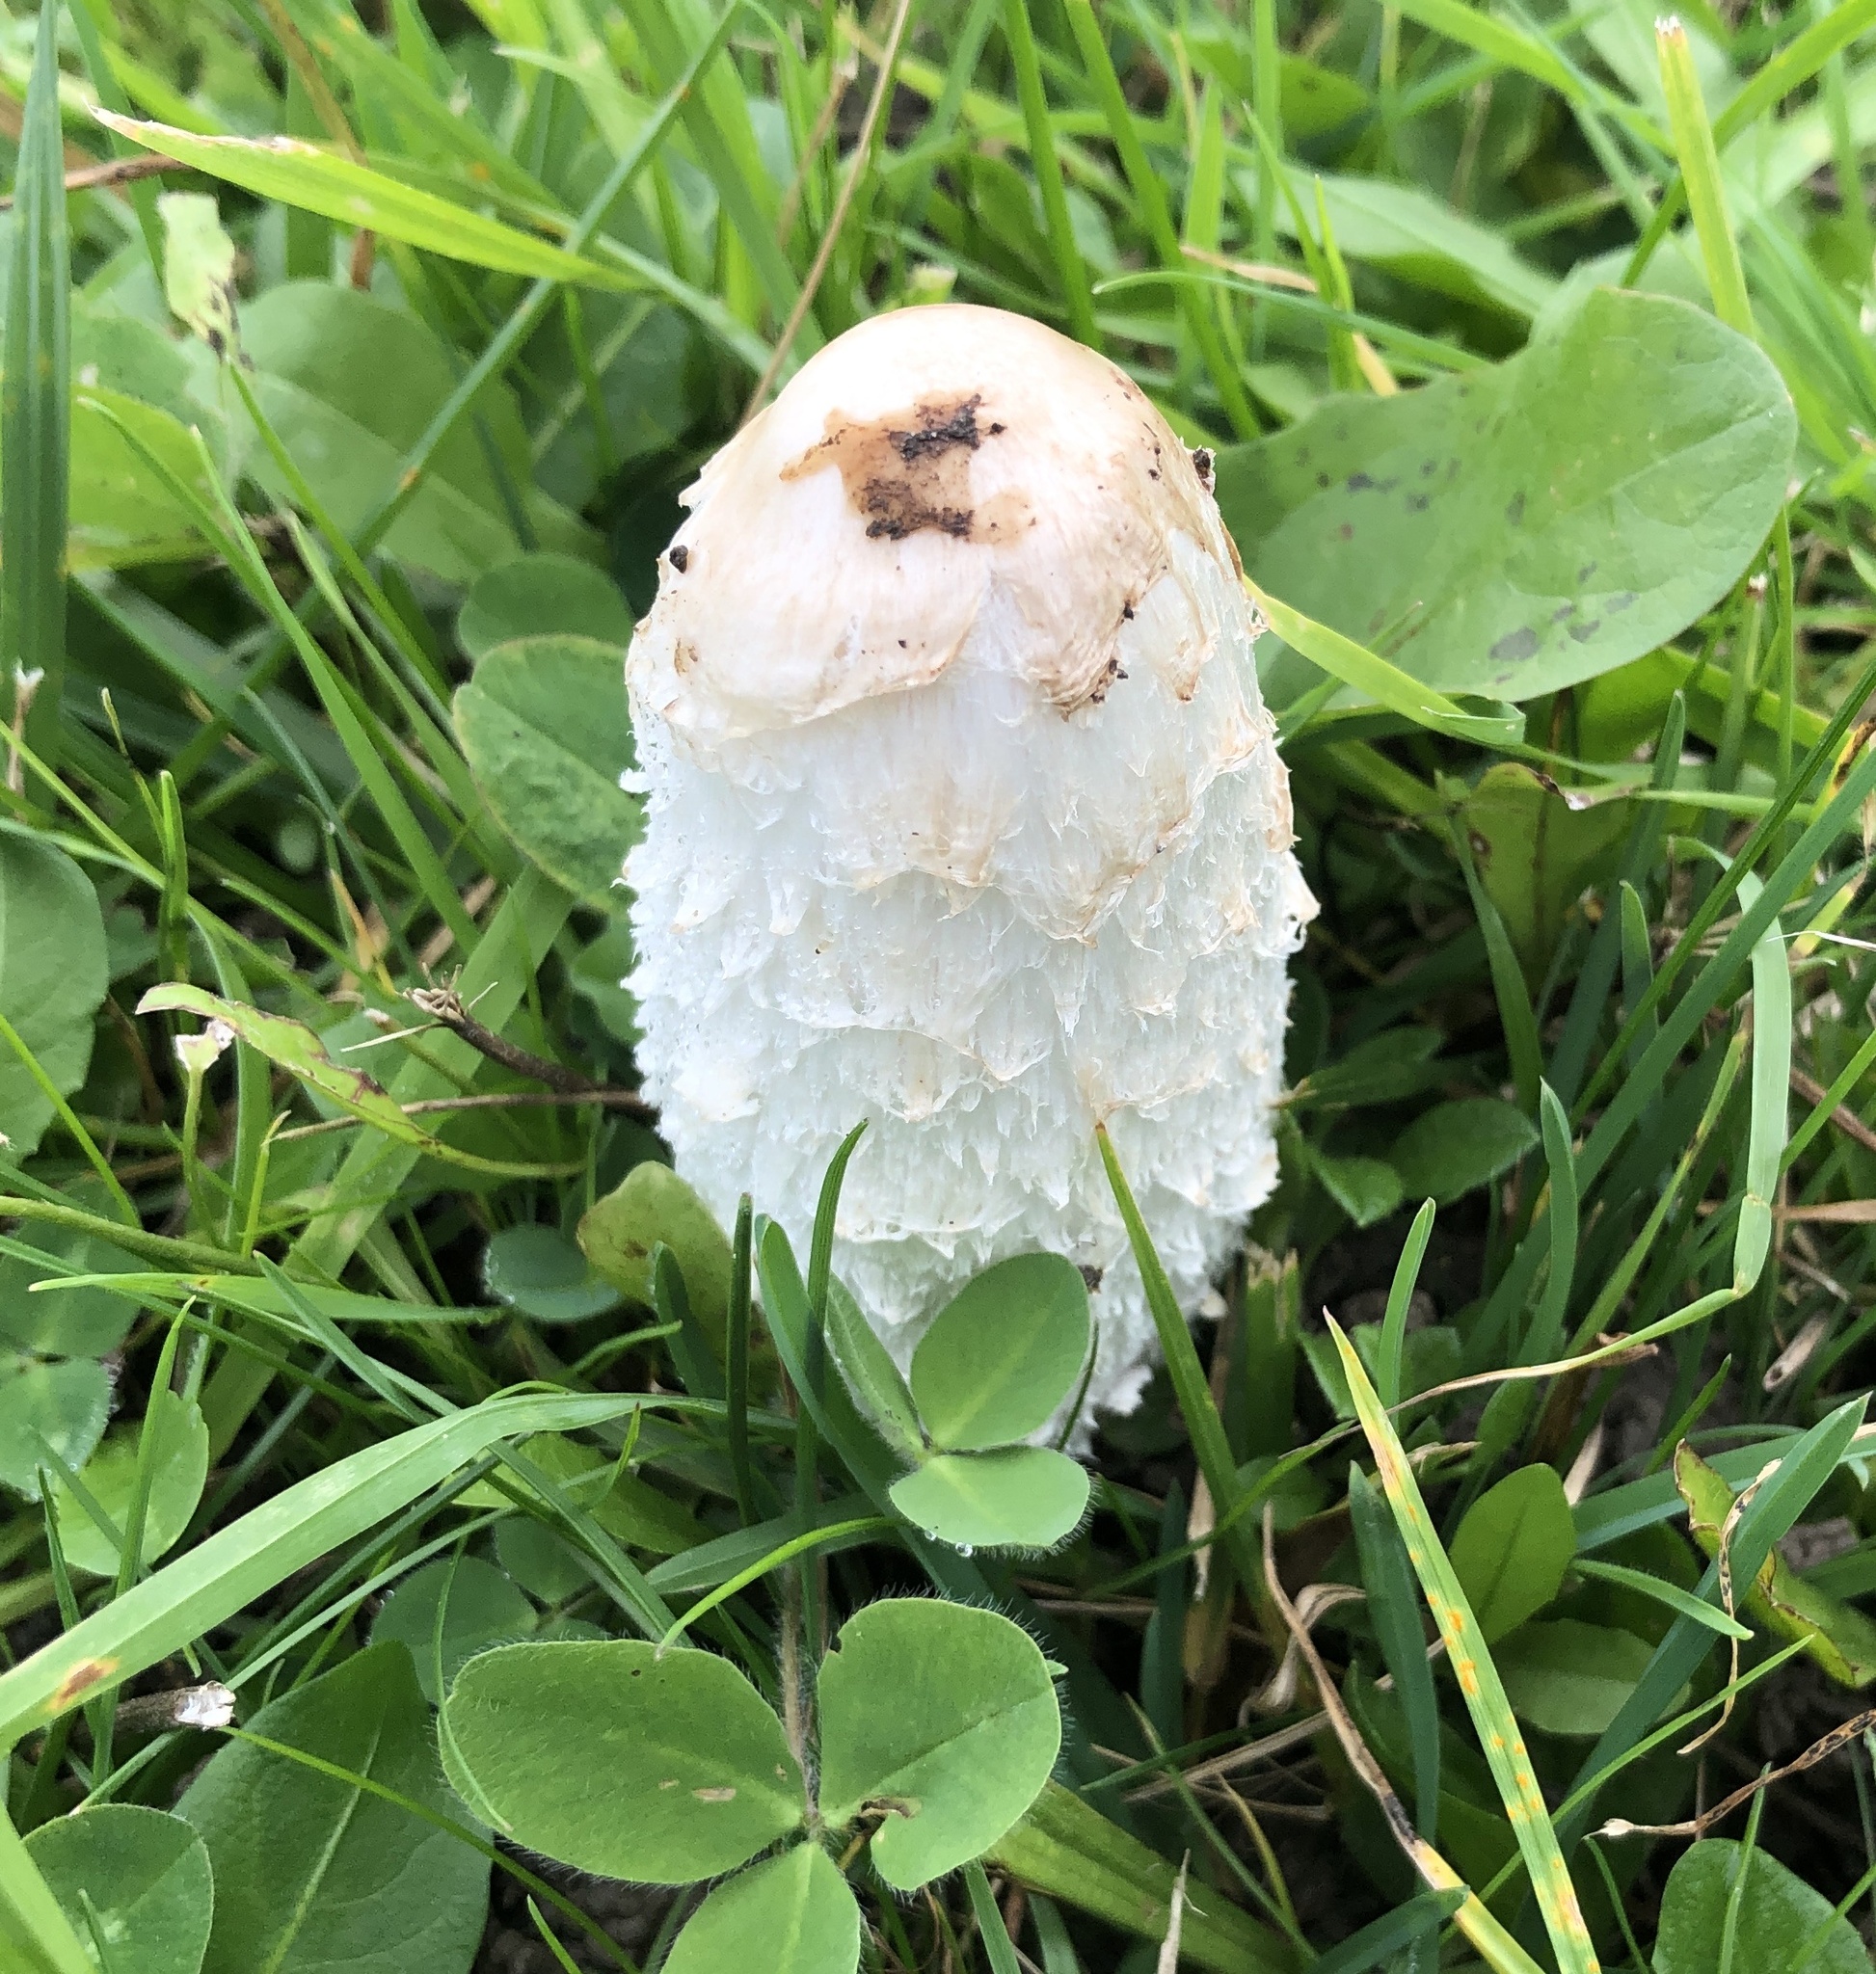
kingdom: Fungi
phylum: Basidiomycota
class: Agaricomycetes
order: Agaricales
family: Agaricaceae
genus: Coprinus
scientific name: Coprinus comatus
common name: Lawyer's wig
